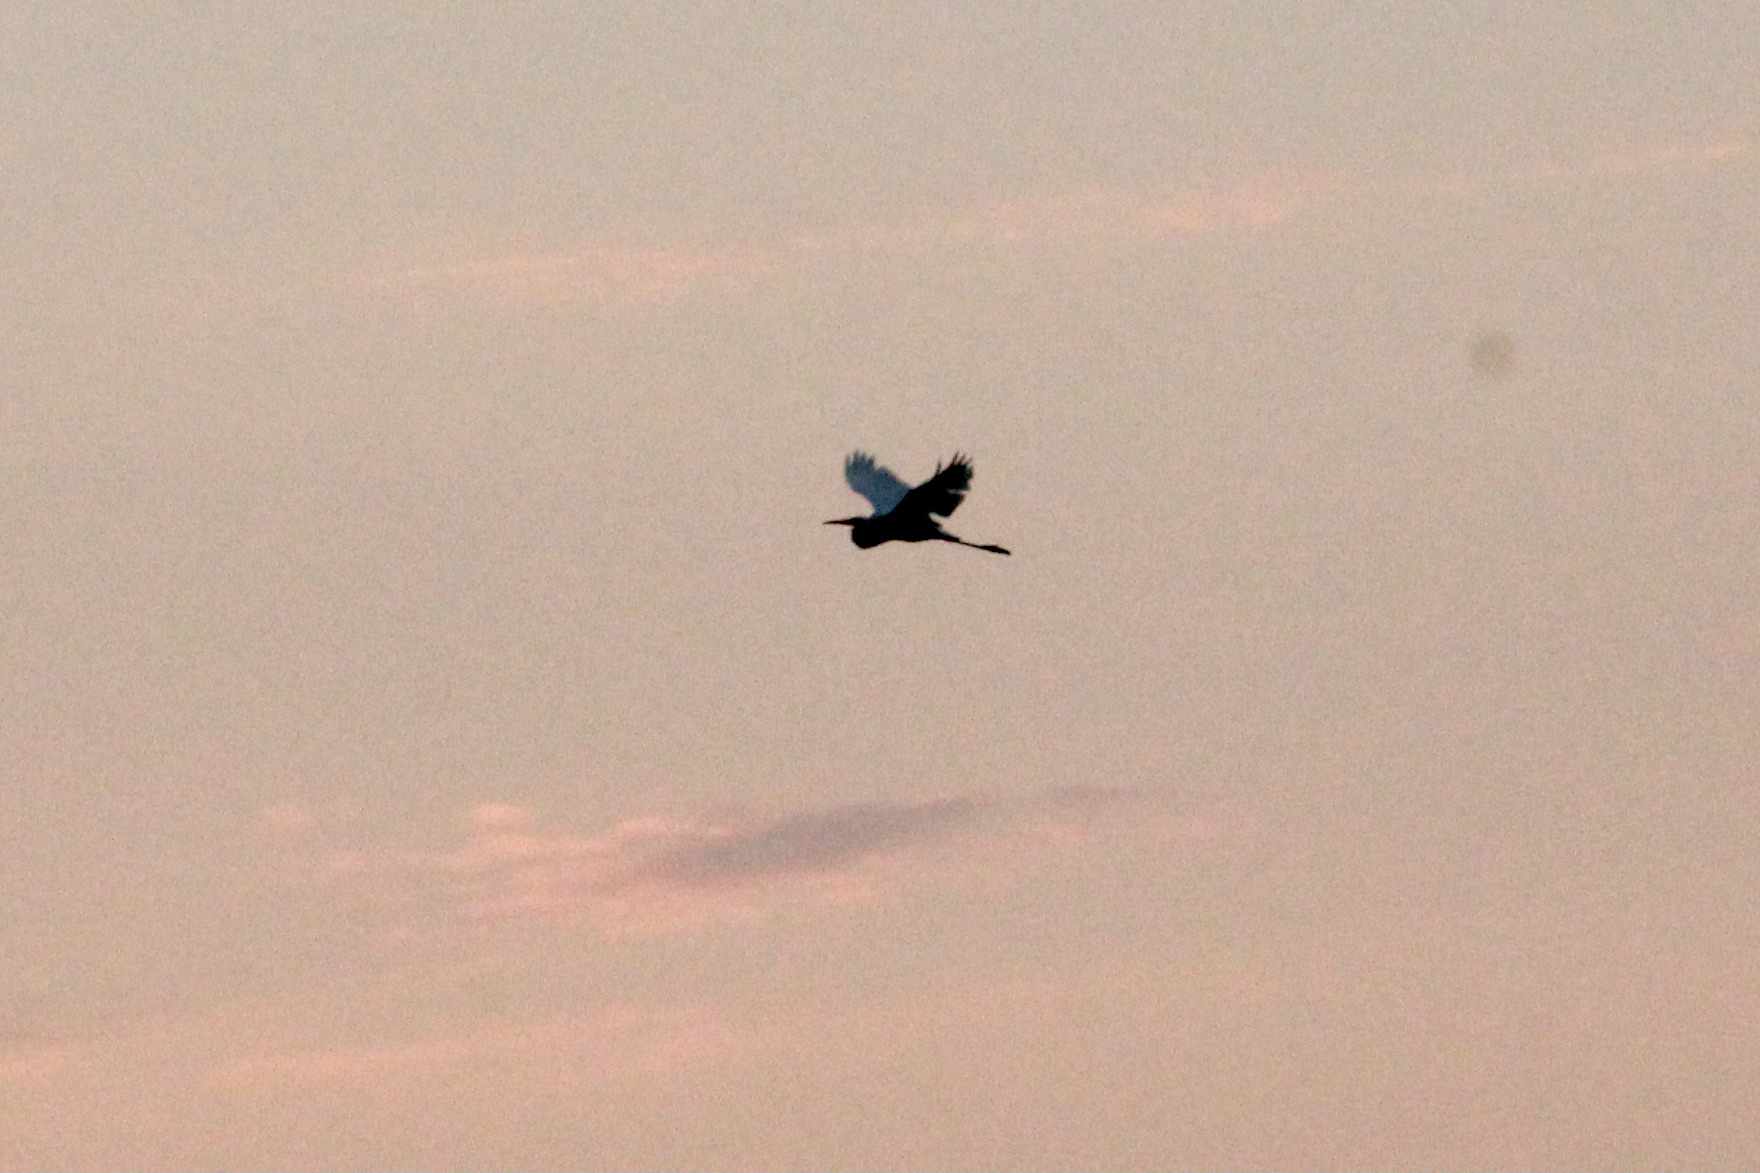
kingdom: Animalia
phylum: Chordata
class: Aves
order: Pelecaniformes
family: Ardeidae
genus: Ardea
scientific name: Ardea alba
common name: Great egret
